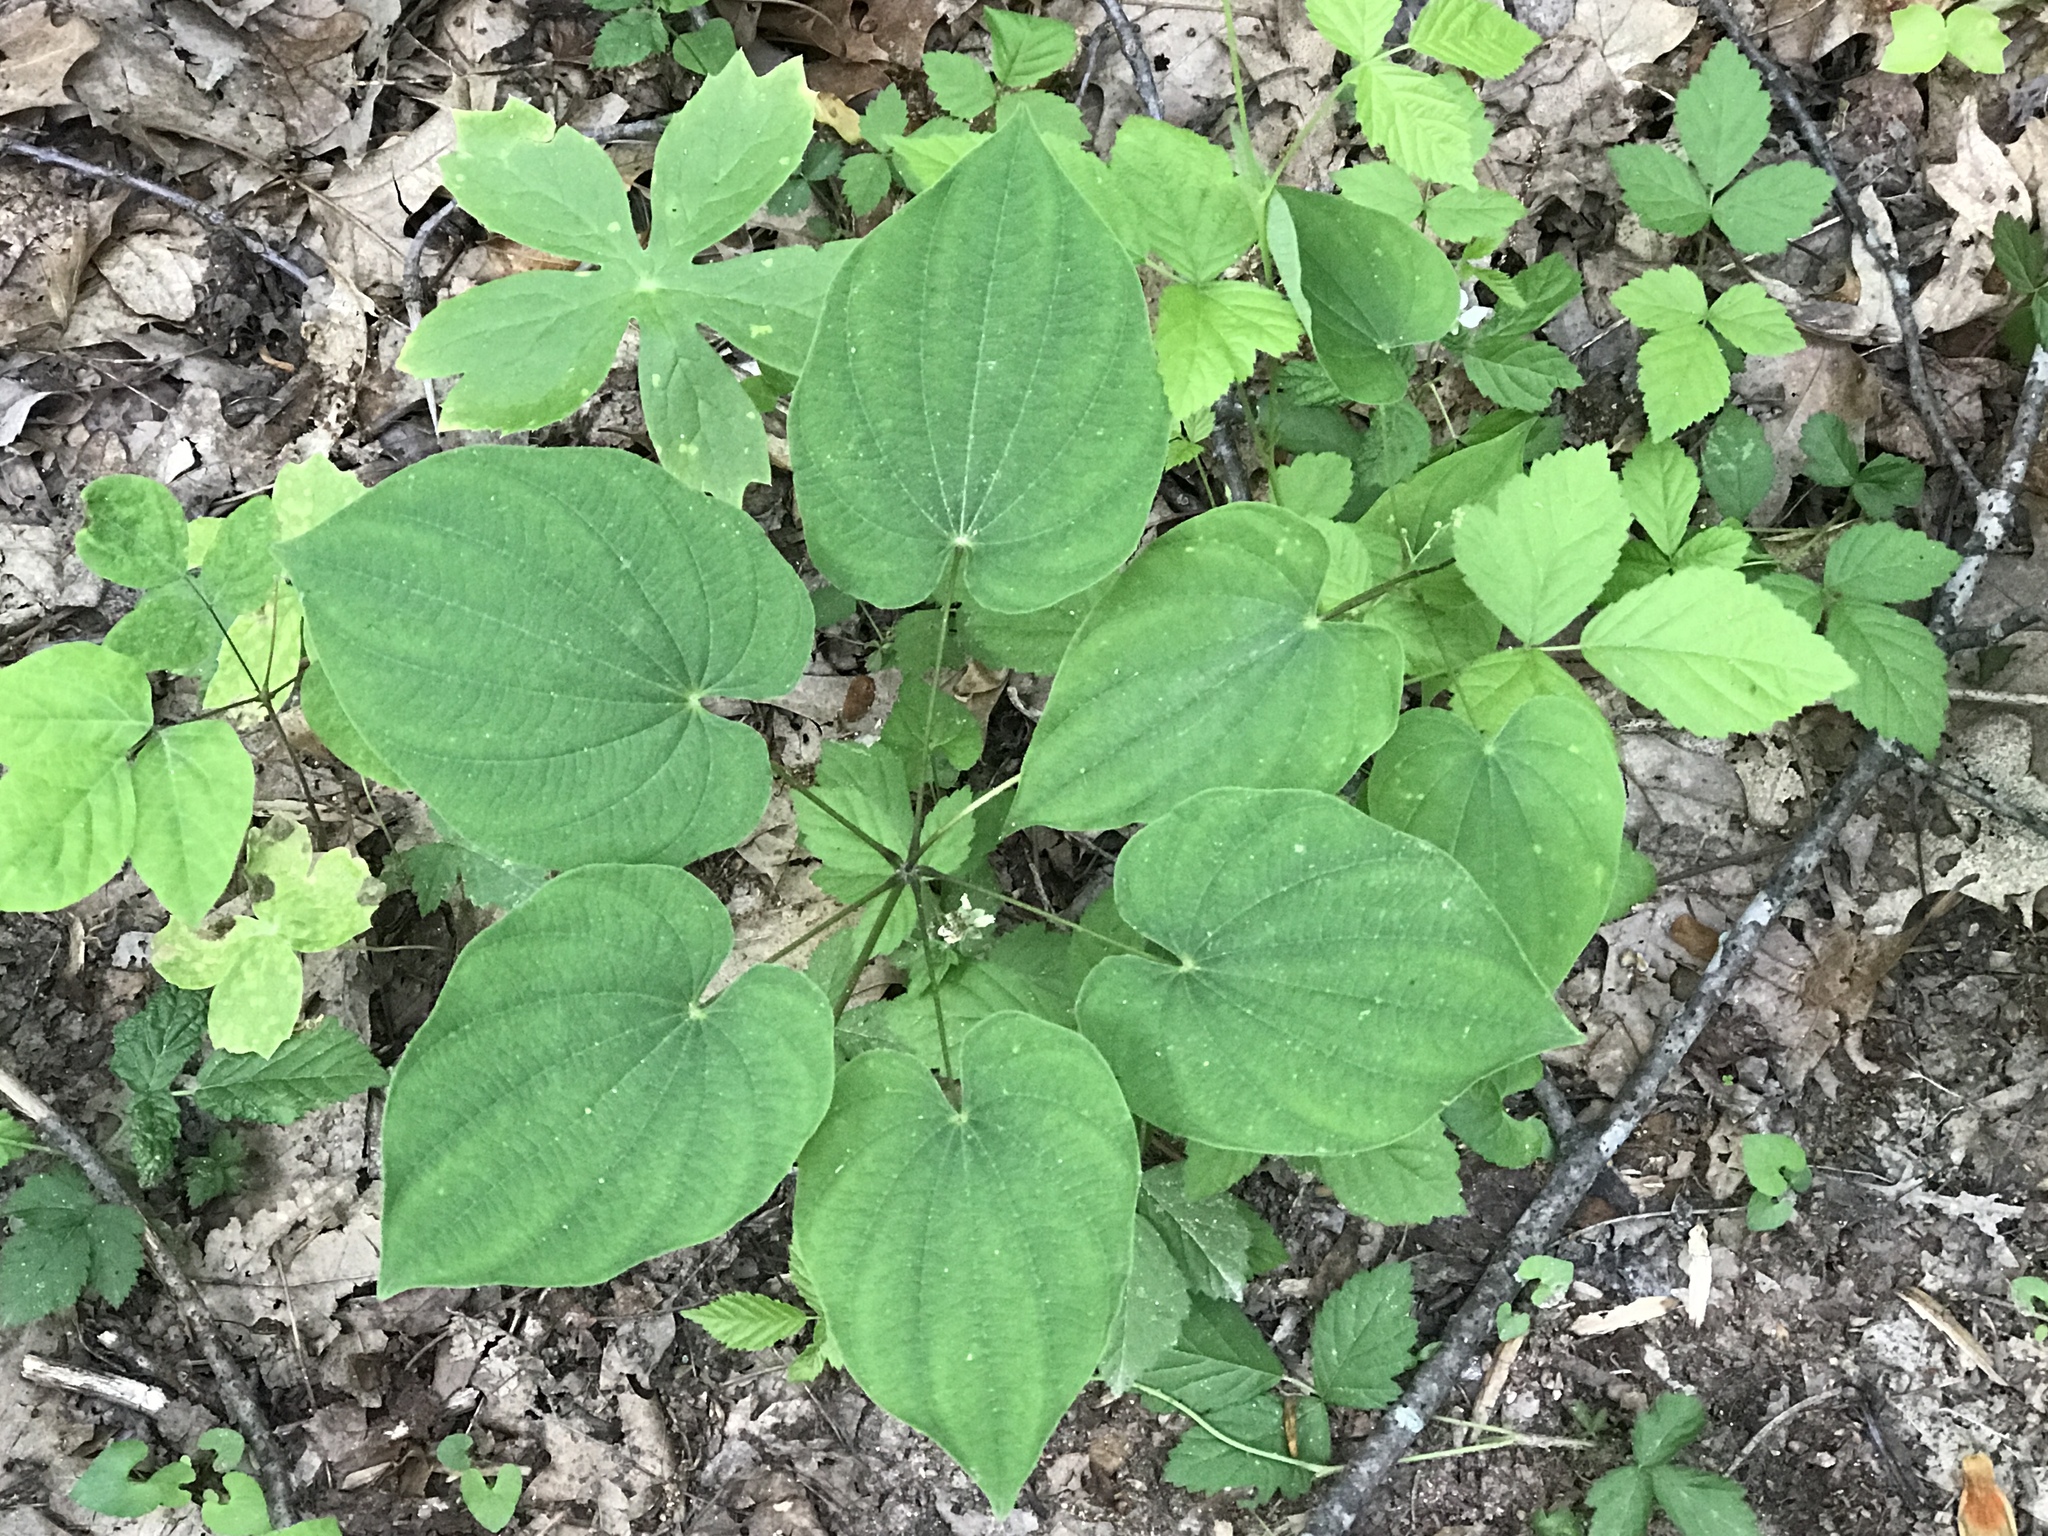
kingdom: Plantae
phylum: Tracheophyta
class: Liliopsida
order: Dioscoreales
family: Dioscoreaceae
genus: Dioscorea
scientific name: Dioscorea villosa
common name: Wild yam
